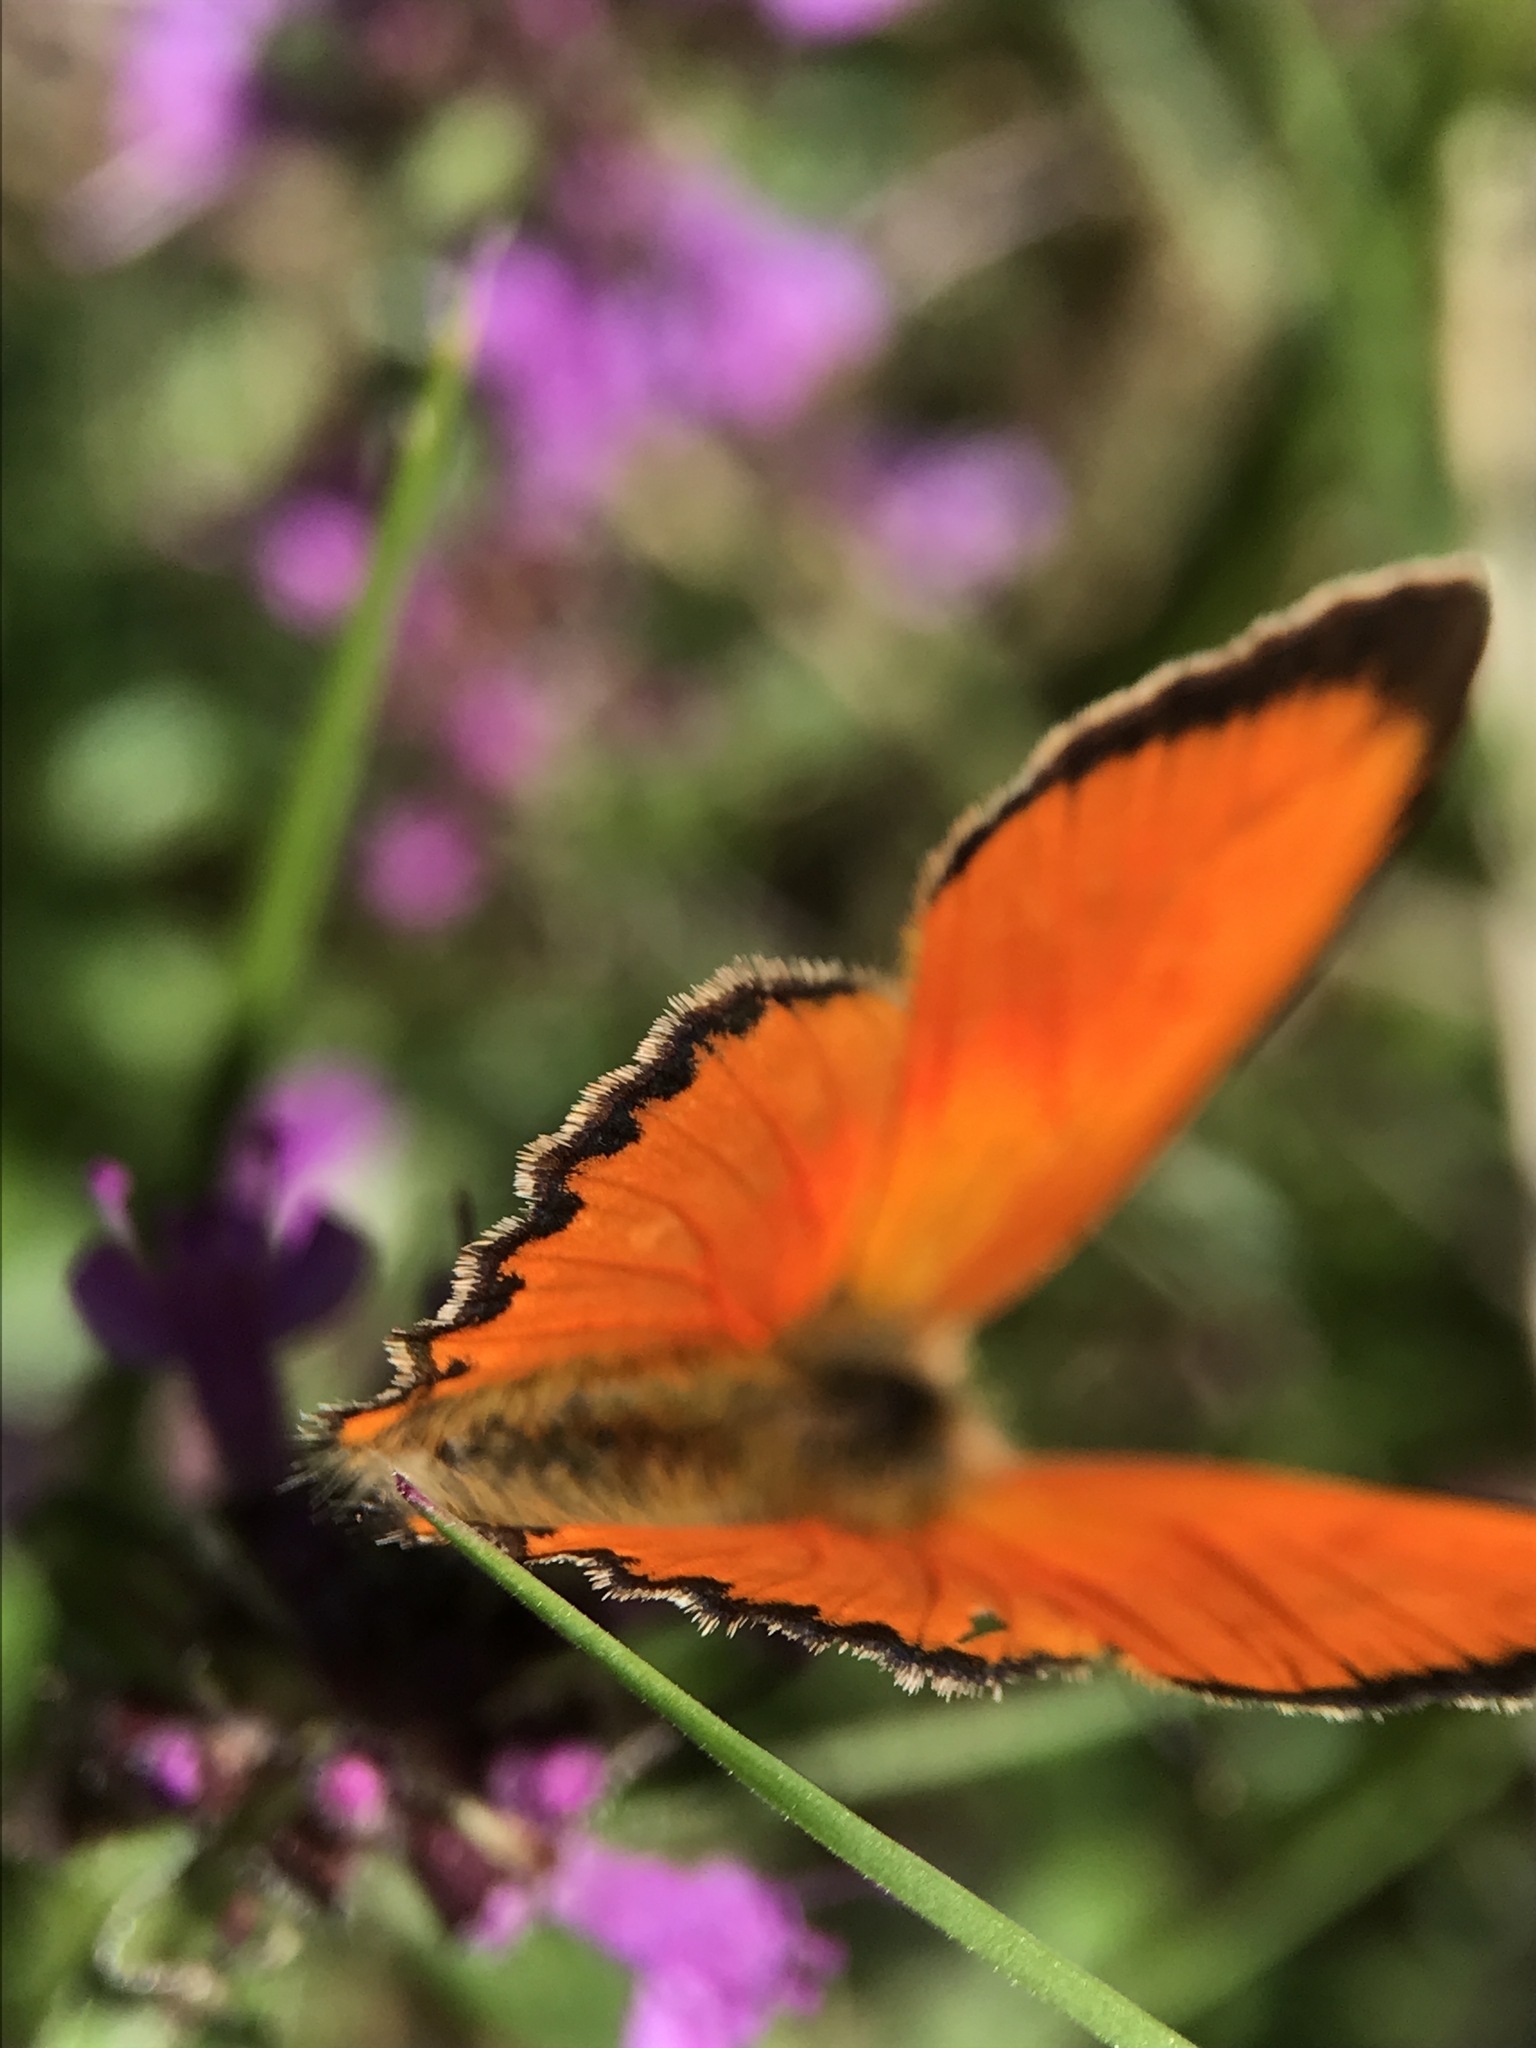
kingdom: Animalia
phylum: Arthropoda
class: Insecta
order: Lepidoptera
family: Lycaenidae
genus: Lycaena
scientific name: Lycaena virgaureae
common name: Scarce copper
